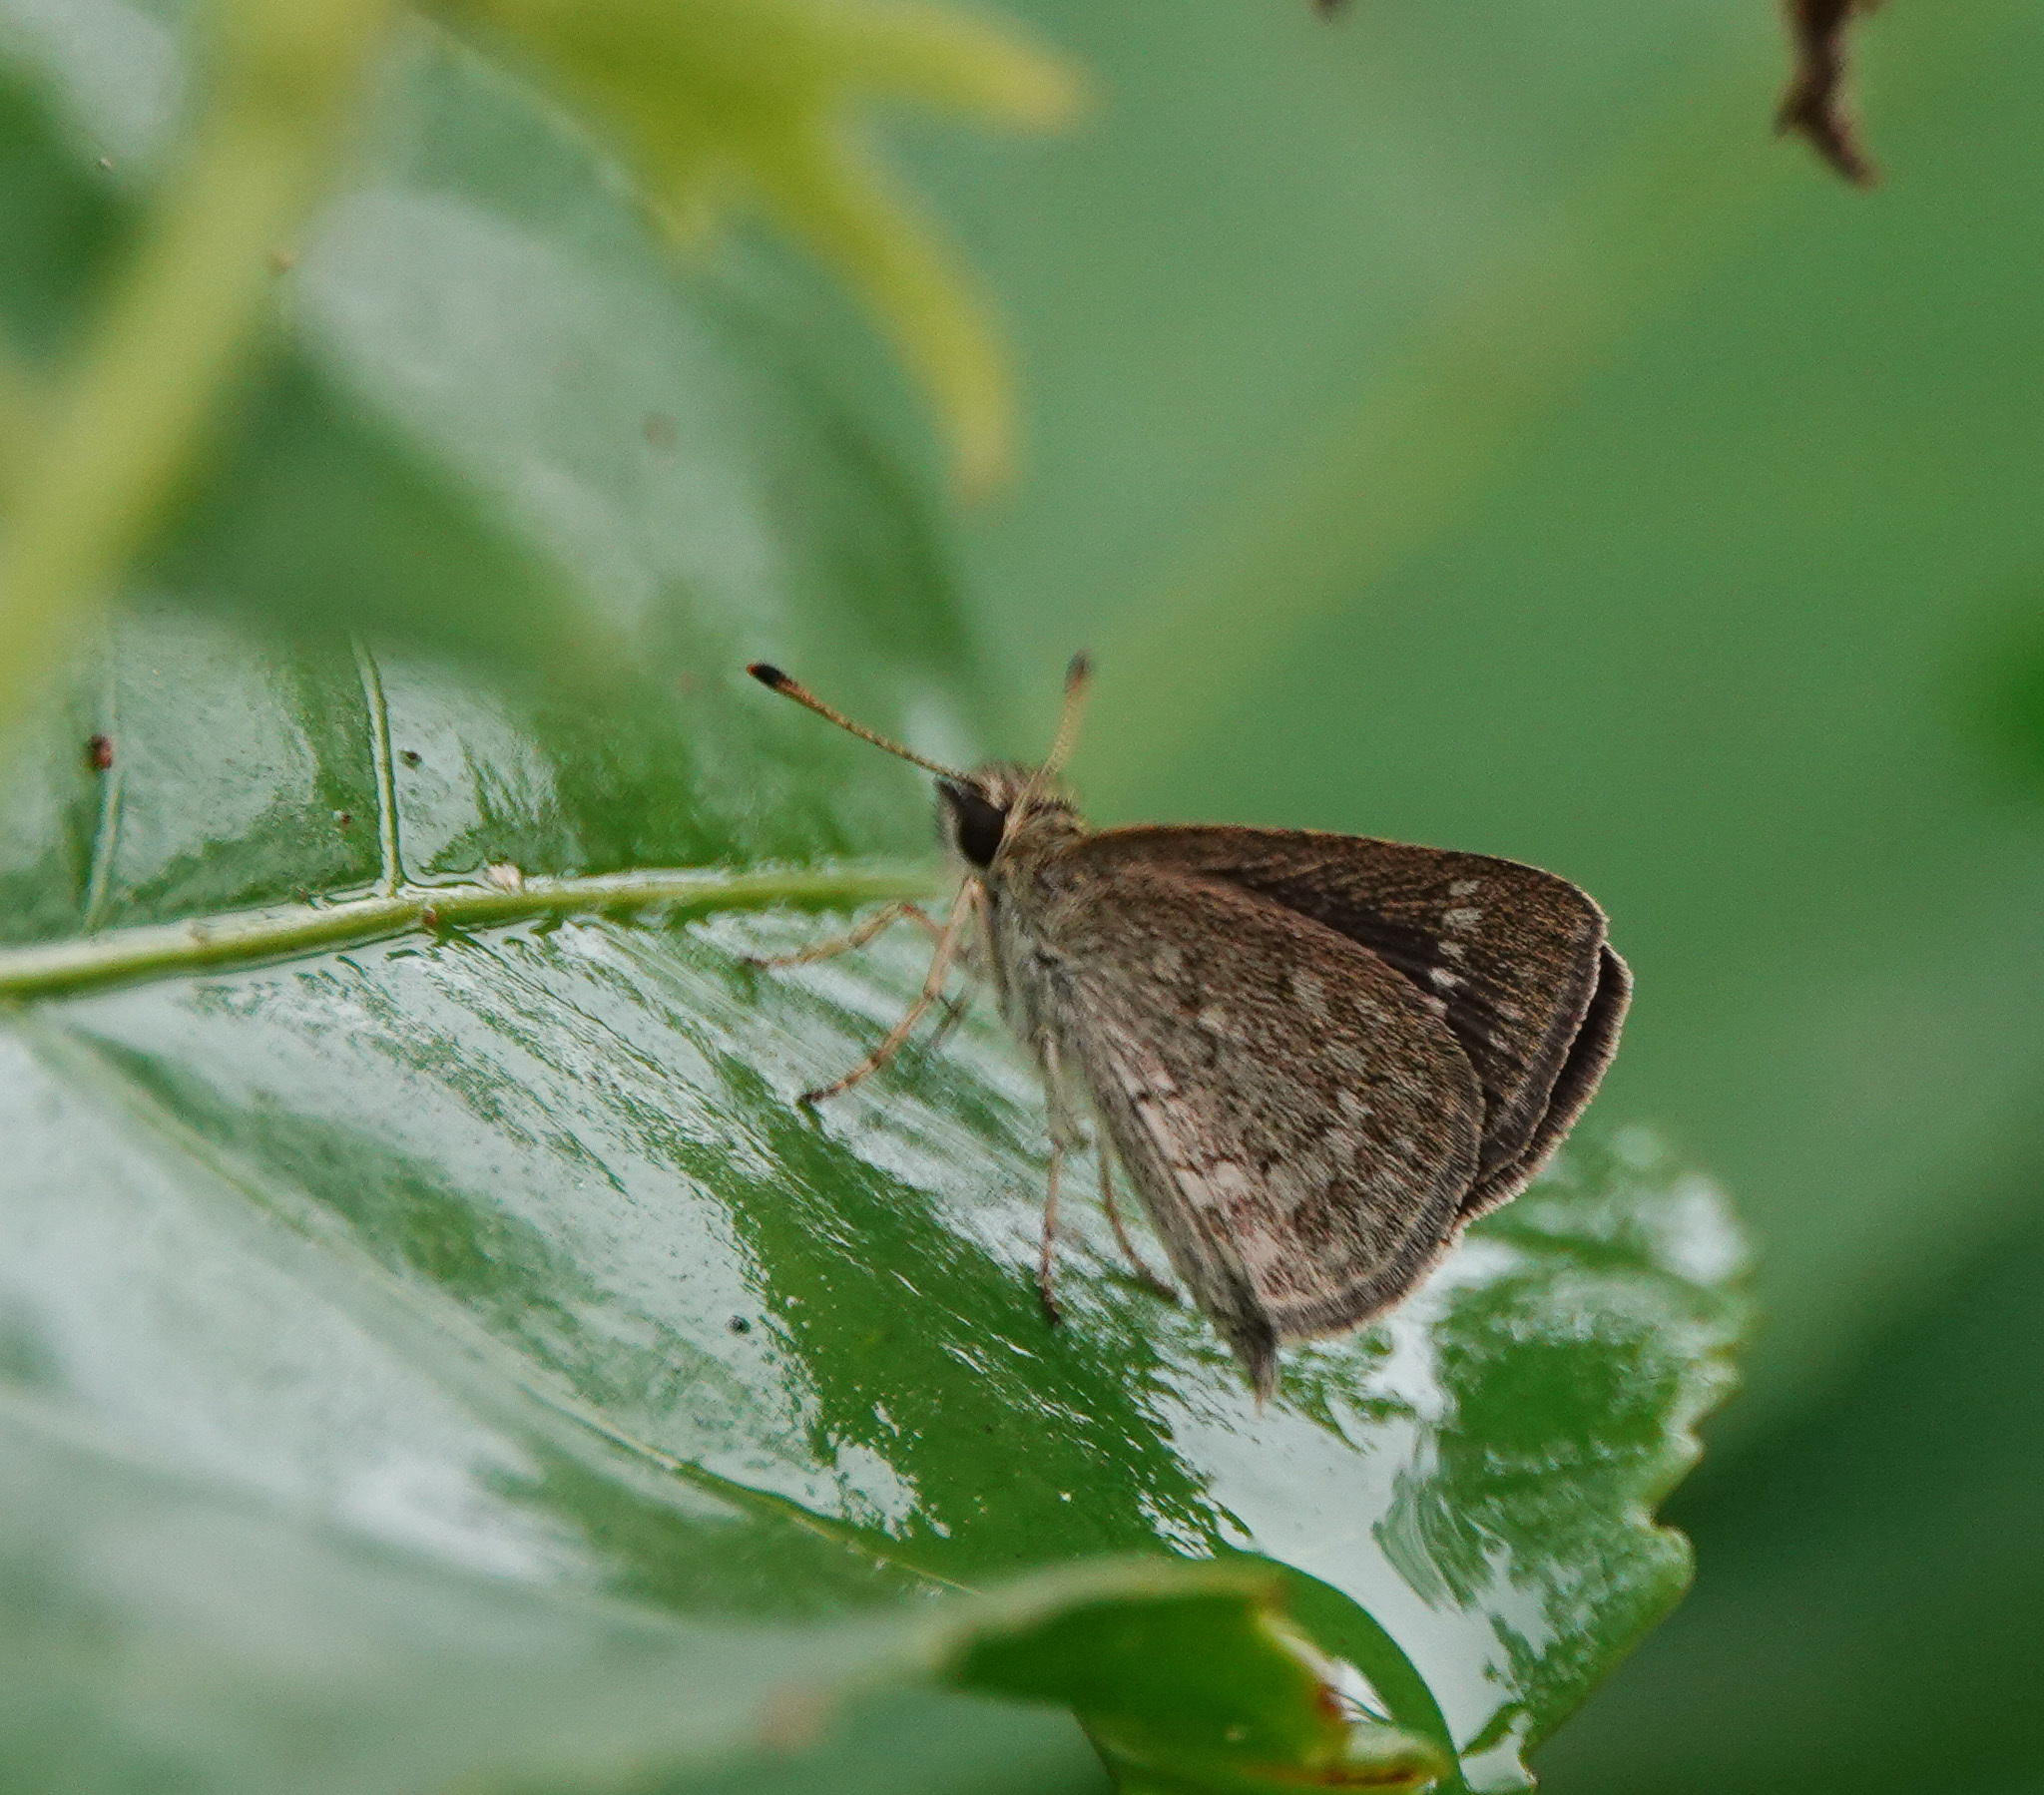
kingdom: Animalia
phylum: Arthropoda
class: Insecta
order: Lepidoptera
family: Hesperiidae
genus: Aeromachus
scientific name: Aeromachus pygmaeus
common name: Pygmy scrub hopper
